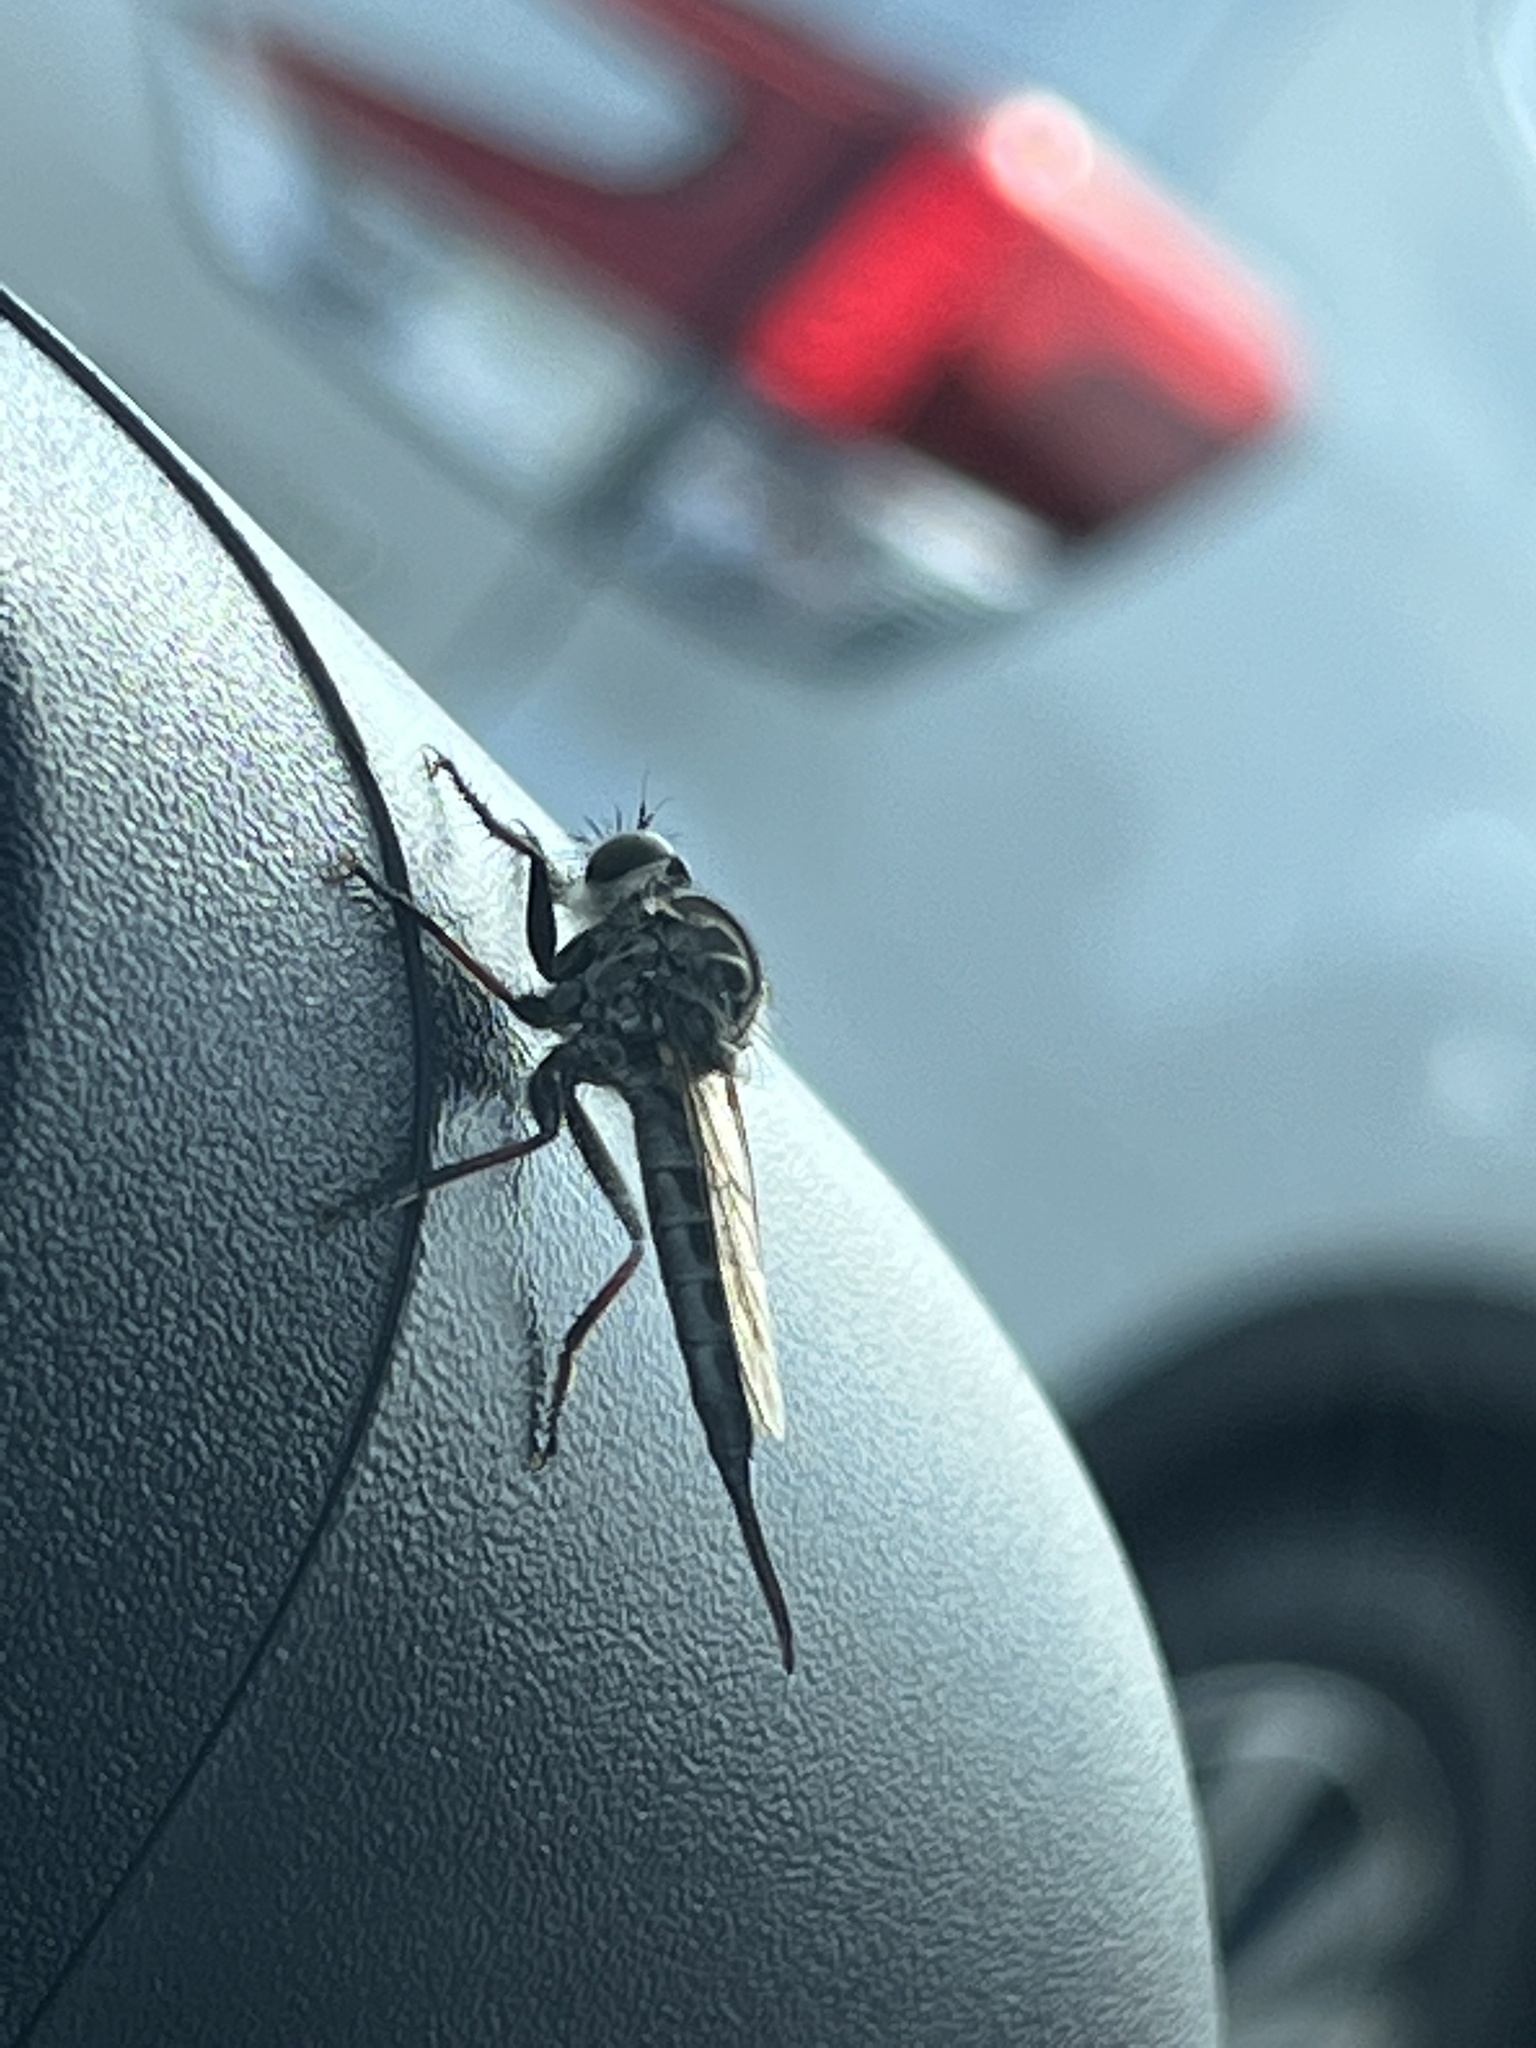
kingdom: Animalia
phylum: Arthropoda
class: Insecta
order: Diptera
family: Asilidae
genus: Efferia
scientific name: Efferia aestuans
